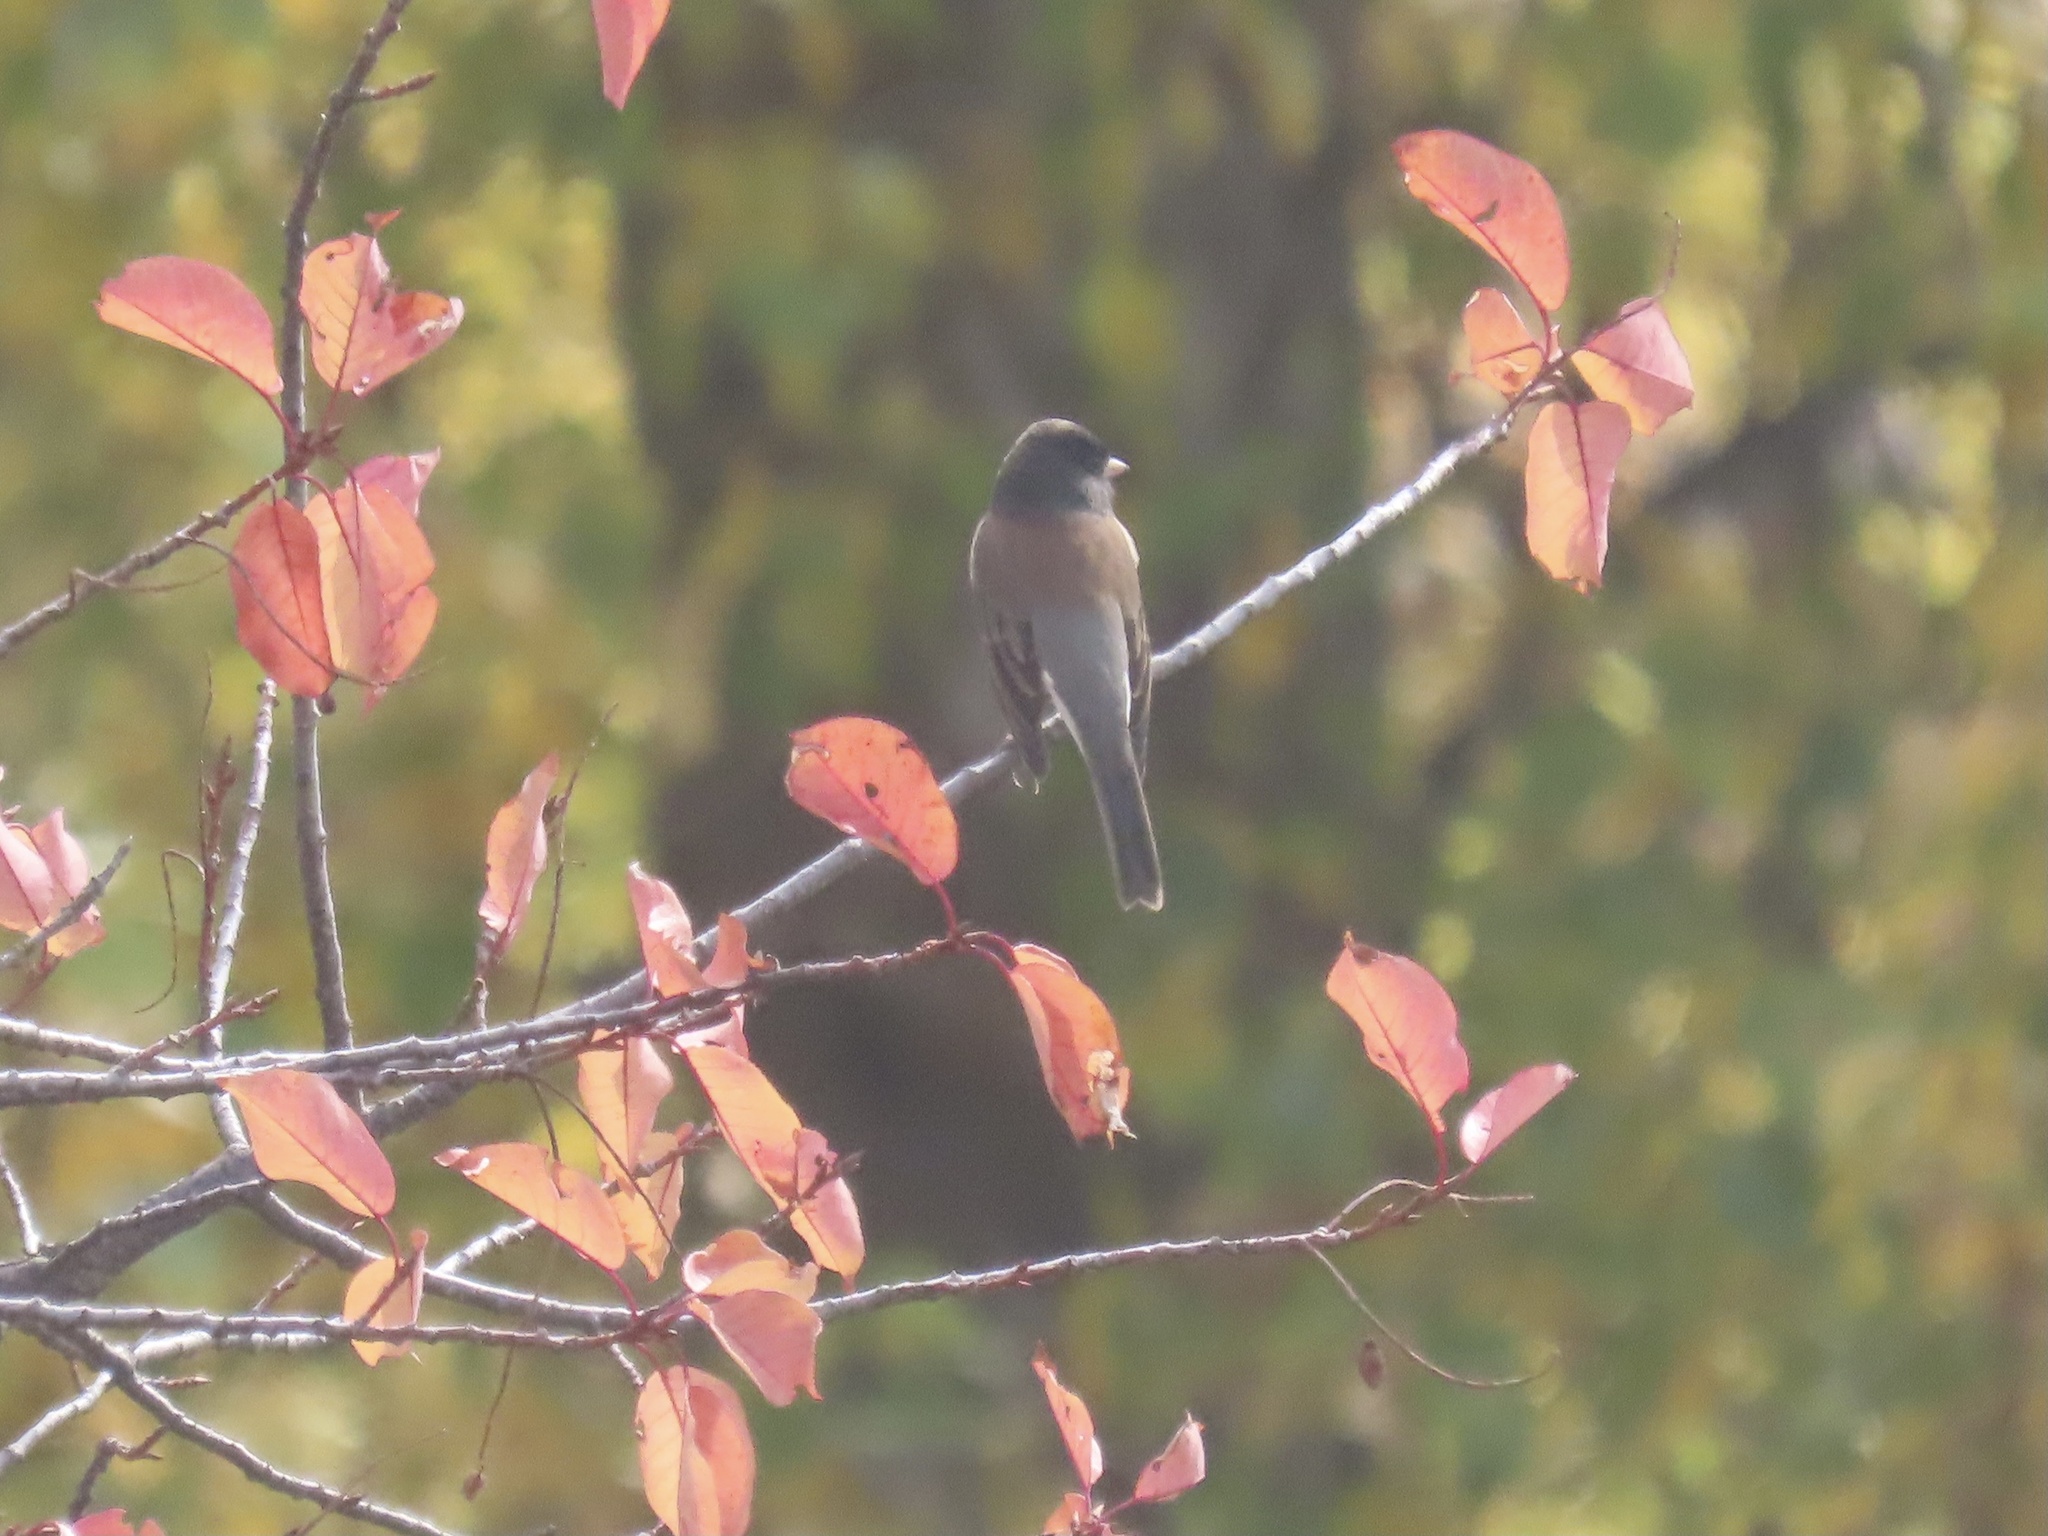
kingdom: Animalia
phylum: Chordata
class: Aves
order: Passeriformes
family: Passerellidae
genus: Junco
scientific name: Junco hyemalis
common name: Dark-eyed junco
